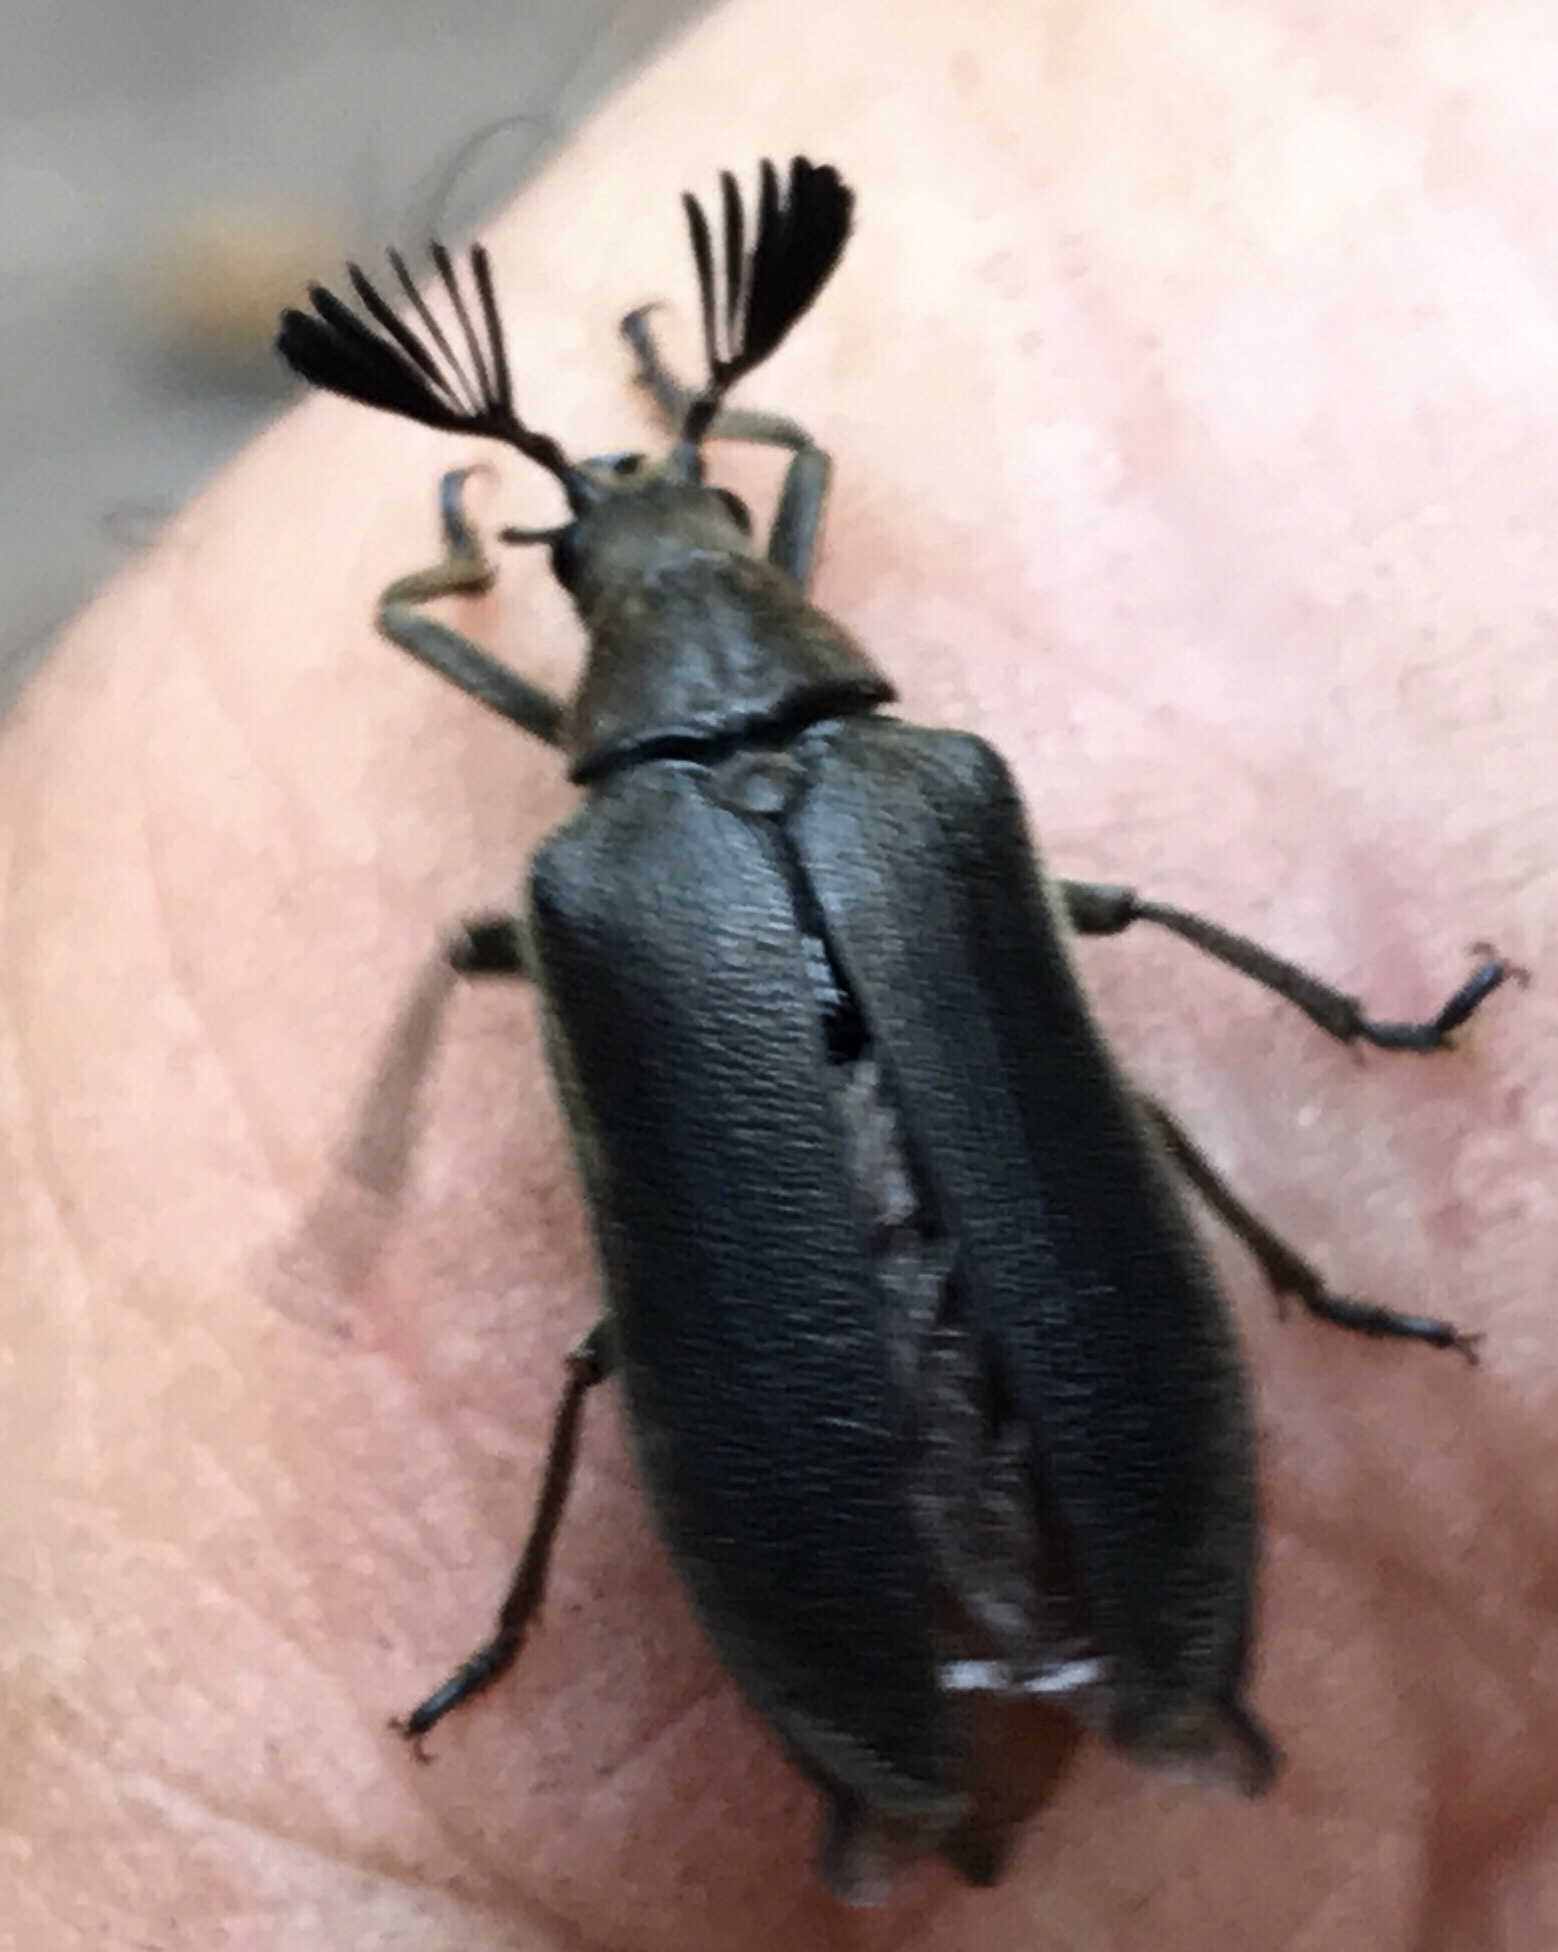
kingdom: Animalia
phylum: Arthropoda
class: Insecta
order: Coleoptera
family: Rhipiceridae
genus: Sandalus
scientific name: Sandalus niger
